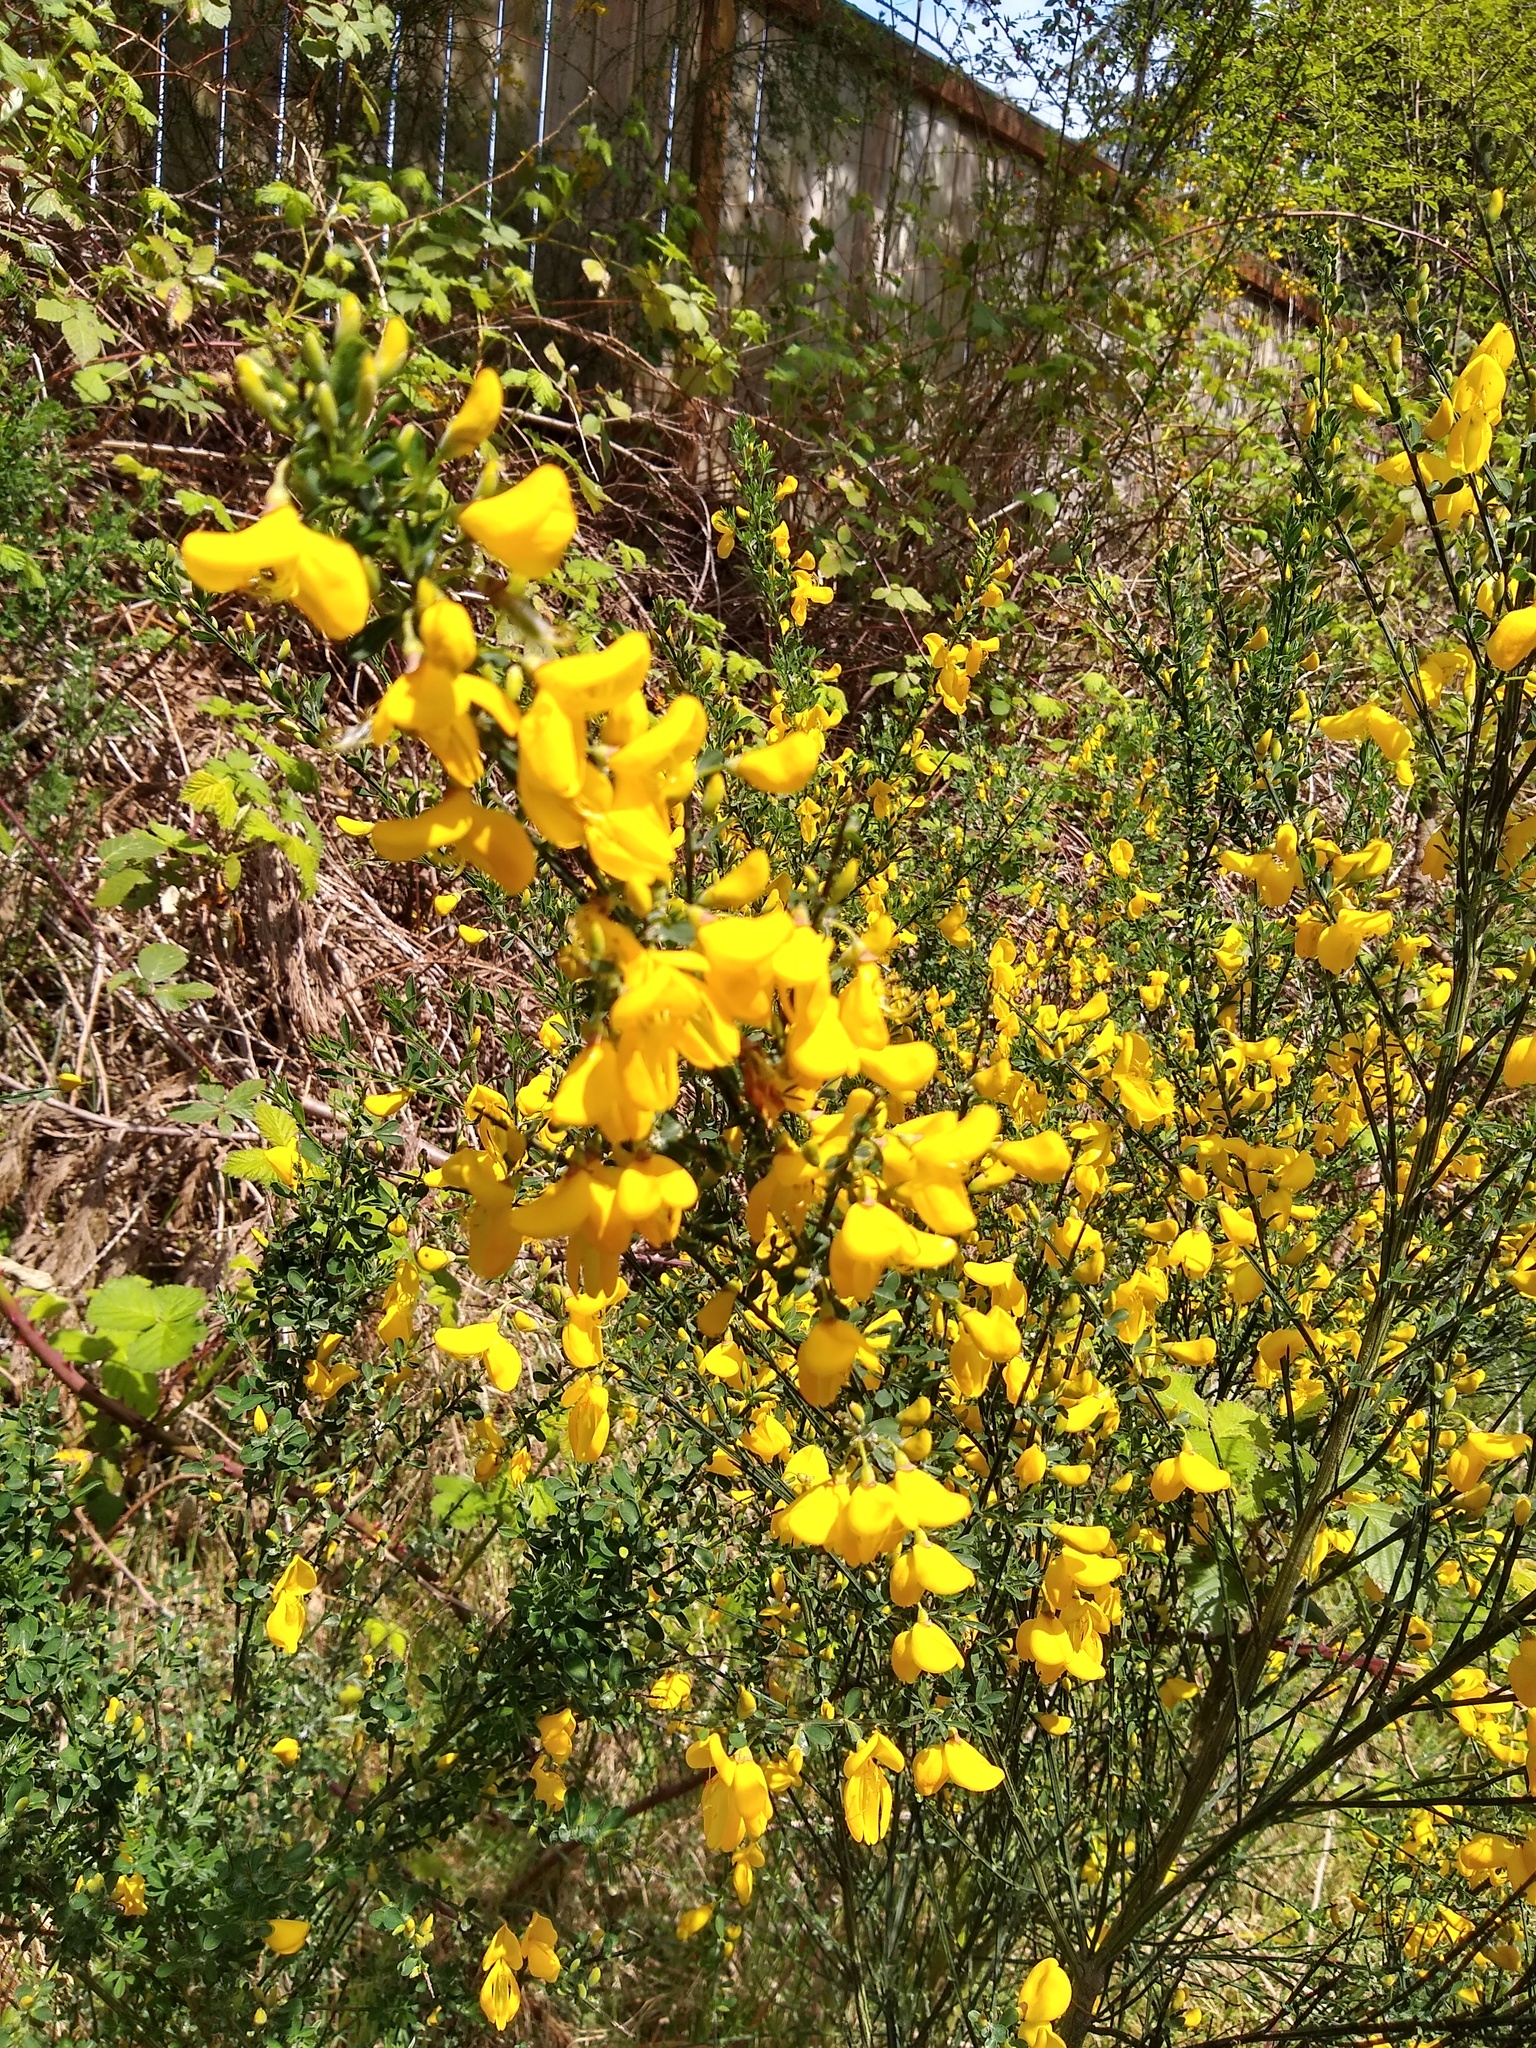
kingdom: Plantae
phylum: Tracheophyta
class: Magnoliopsida
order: Fabales
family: Fabaceae
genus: Cytisus
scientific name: Cytisus scoparius
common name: Scotch broom
